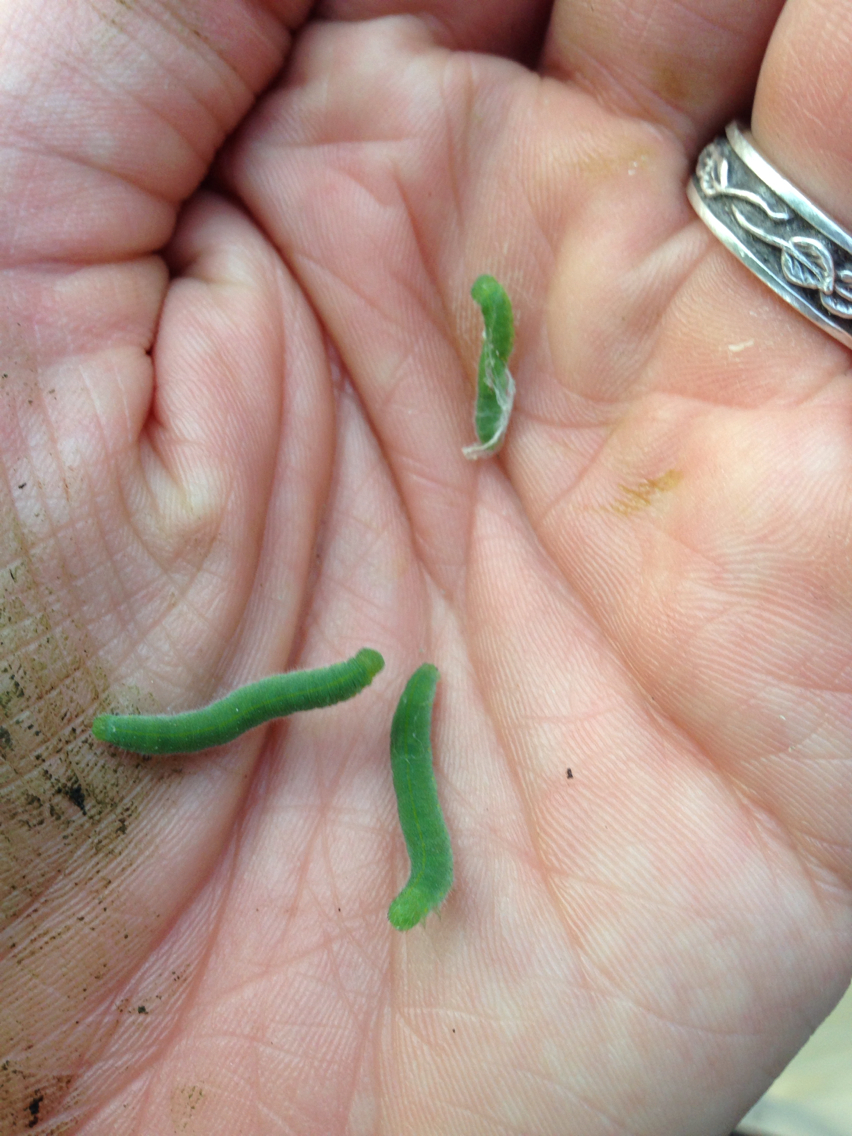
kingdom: Animalia
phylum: Arthropoda
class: Insecta
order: Lepidoptera
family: Pieridae
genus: Pieris
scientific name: Pieris rapae
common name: Small white
